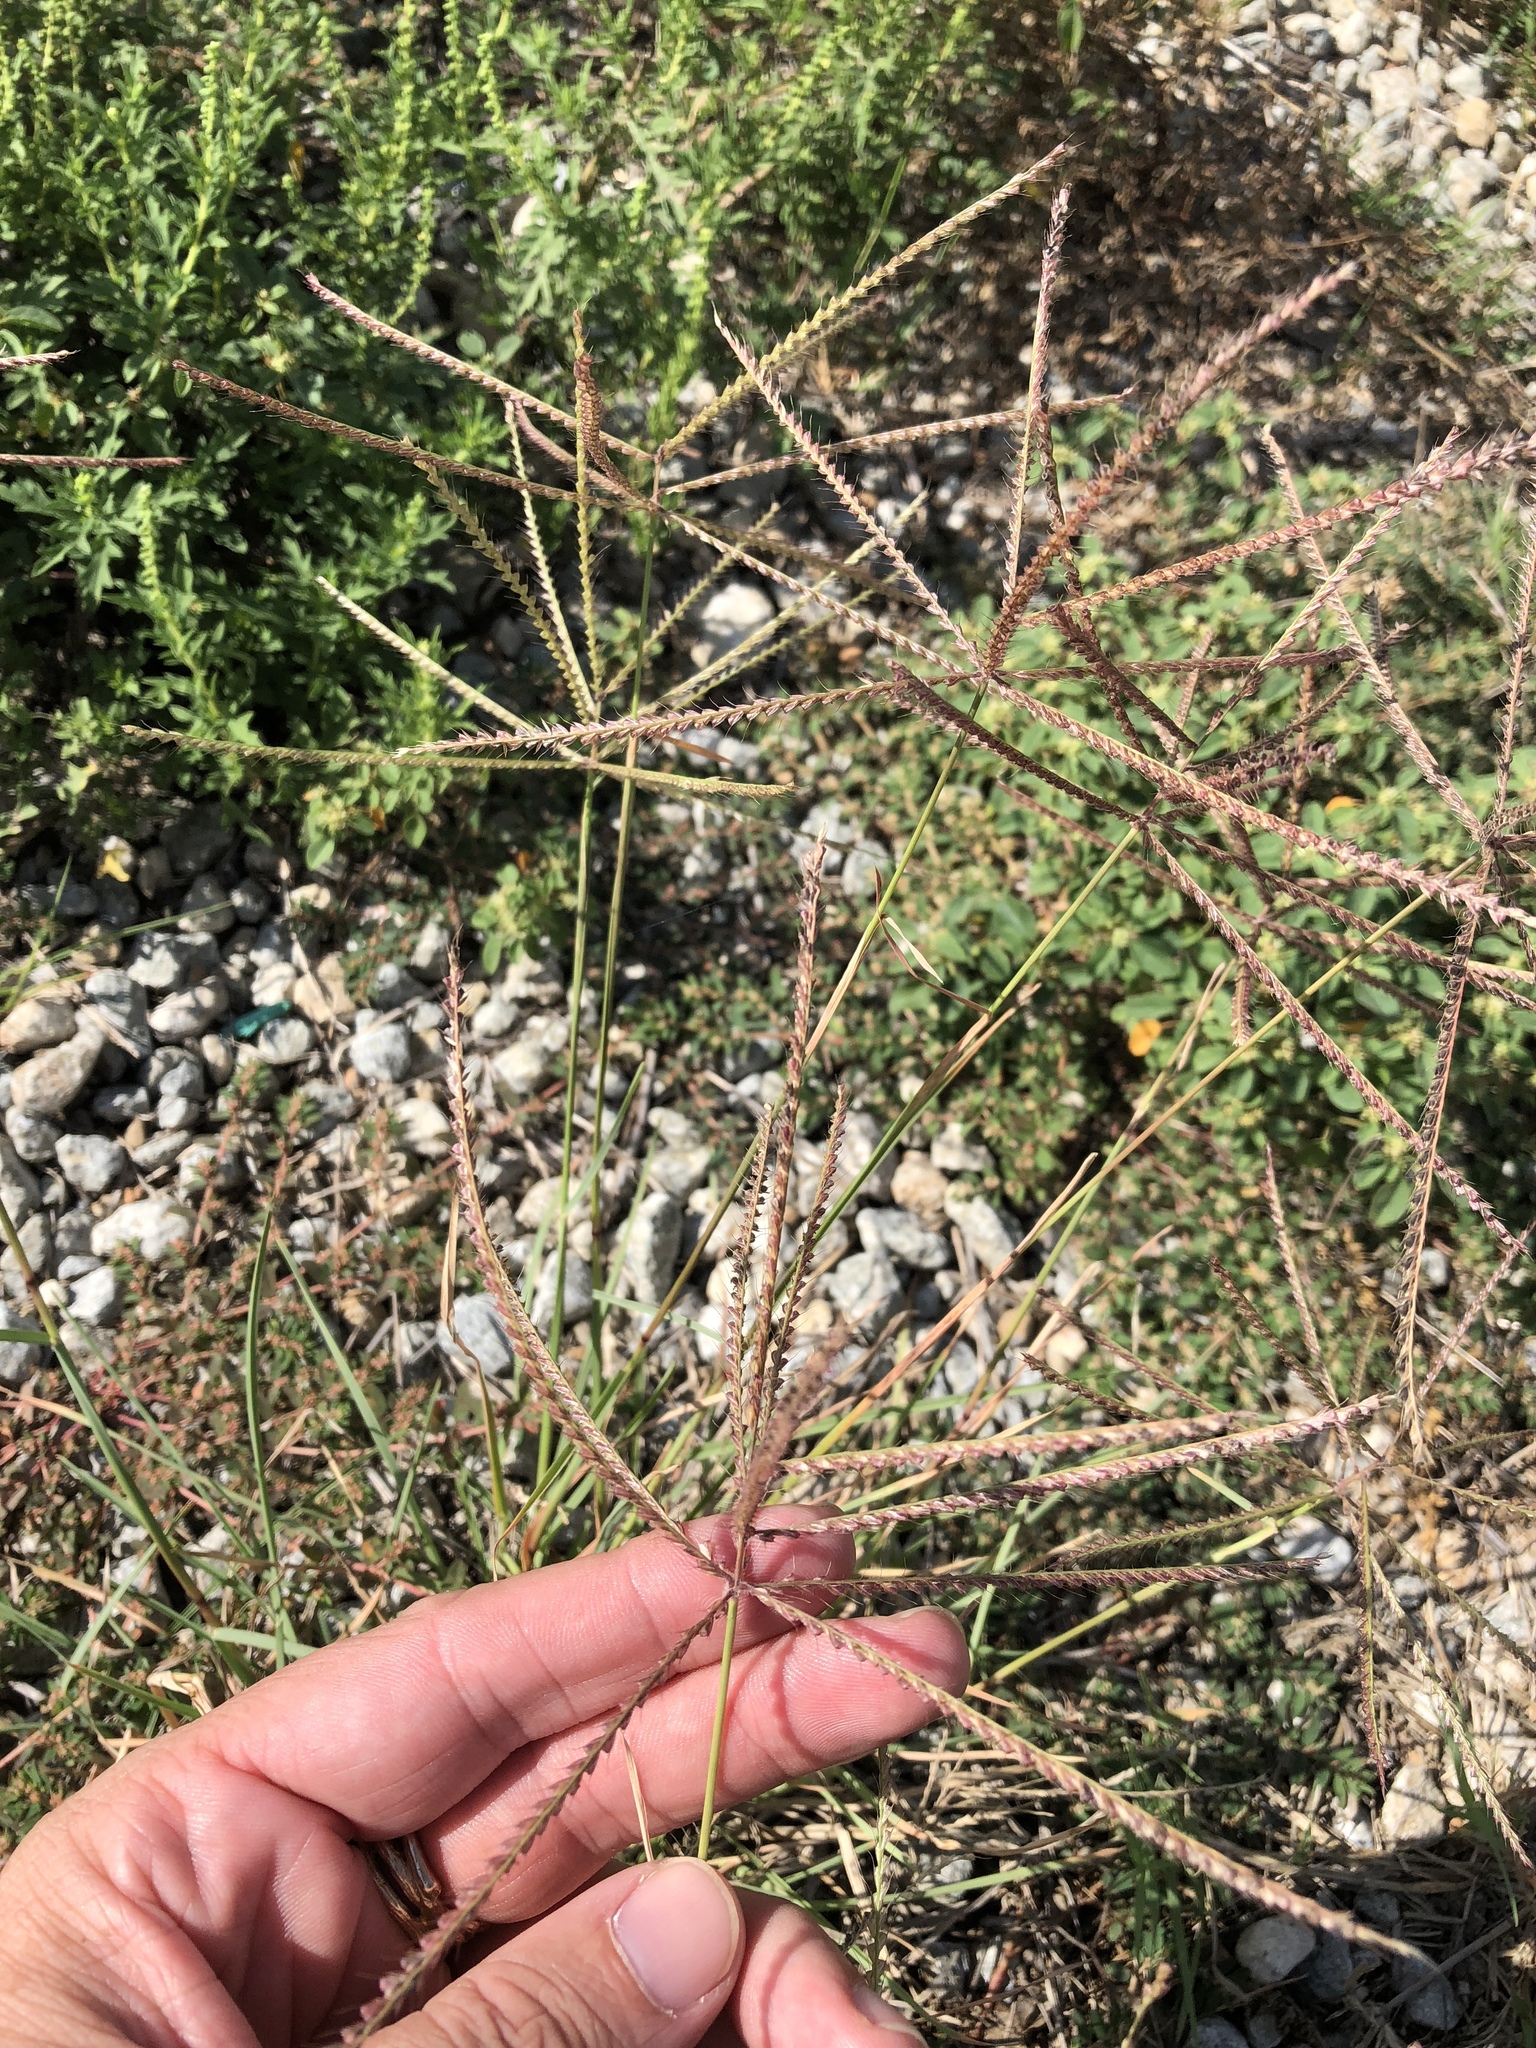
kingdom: Plantae
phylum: Tracheophyta
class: Liliopsida
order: Poales
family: Poaceae
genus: Chloris
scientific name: Chloris verticillata
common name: Tumble windmill grass
